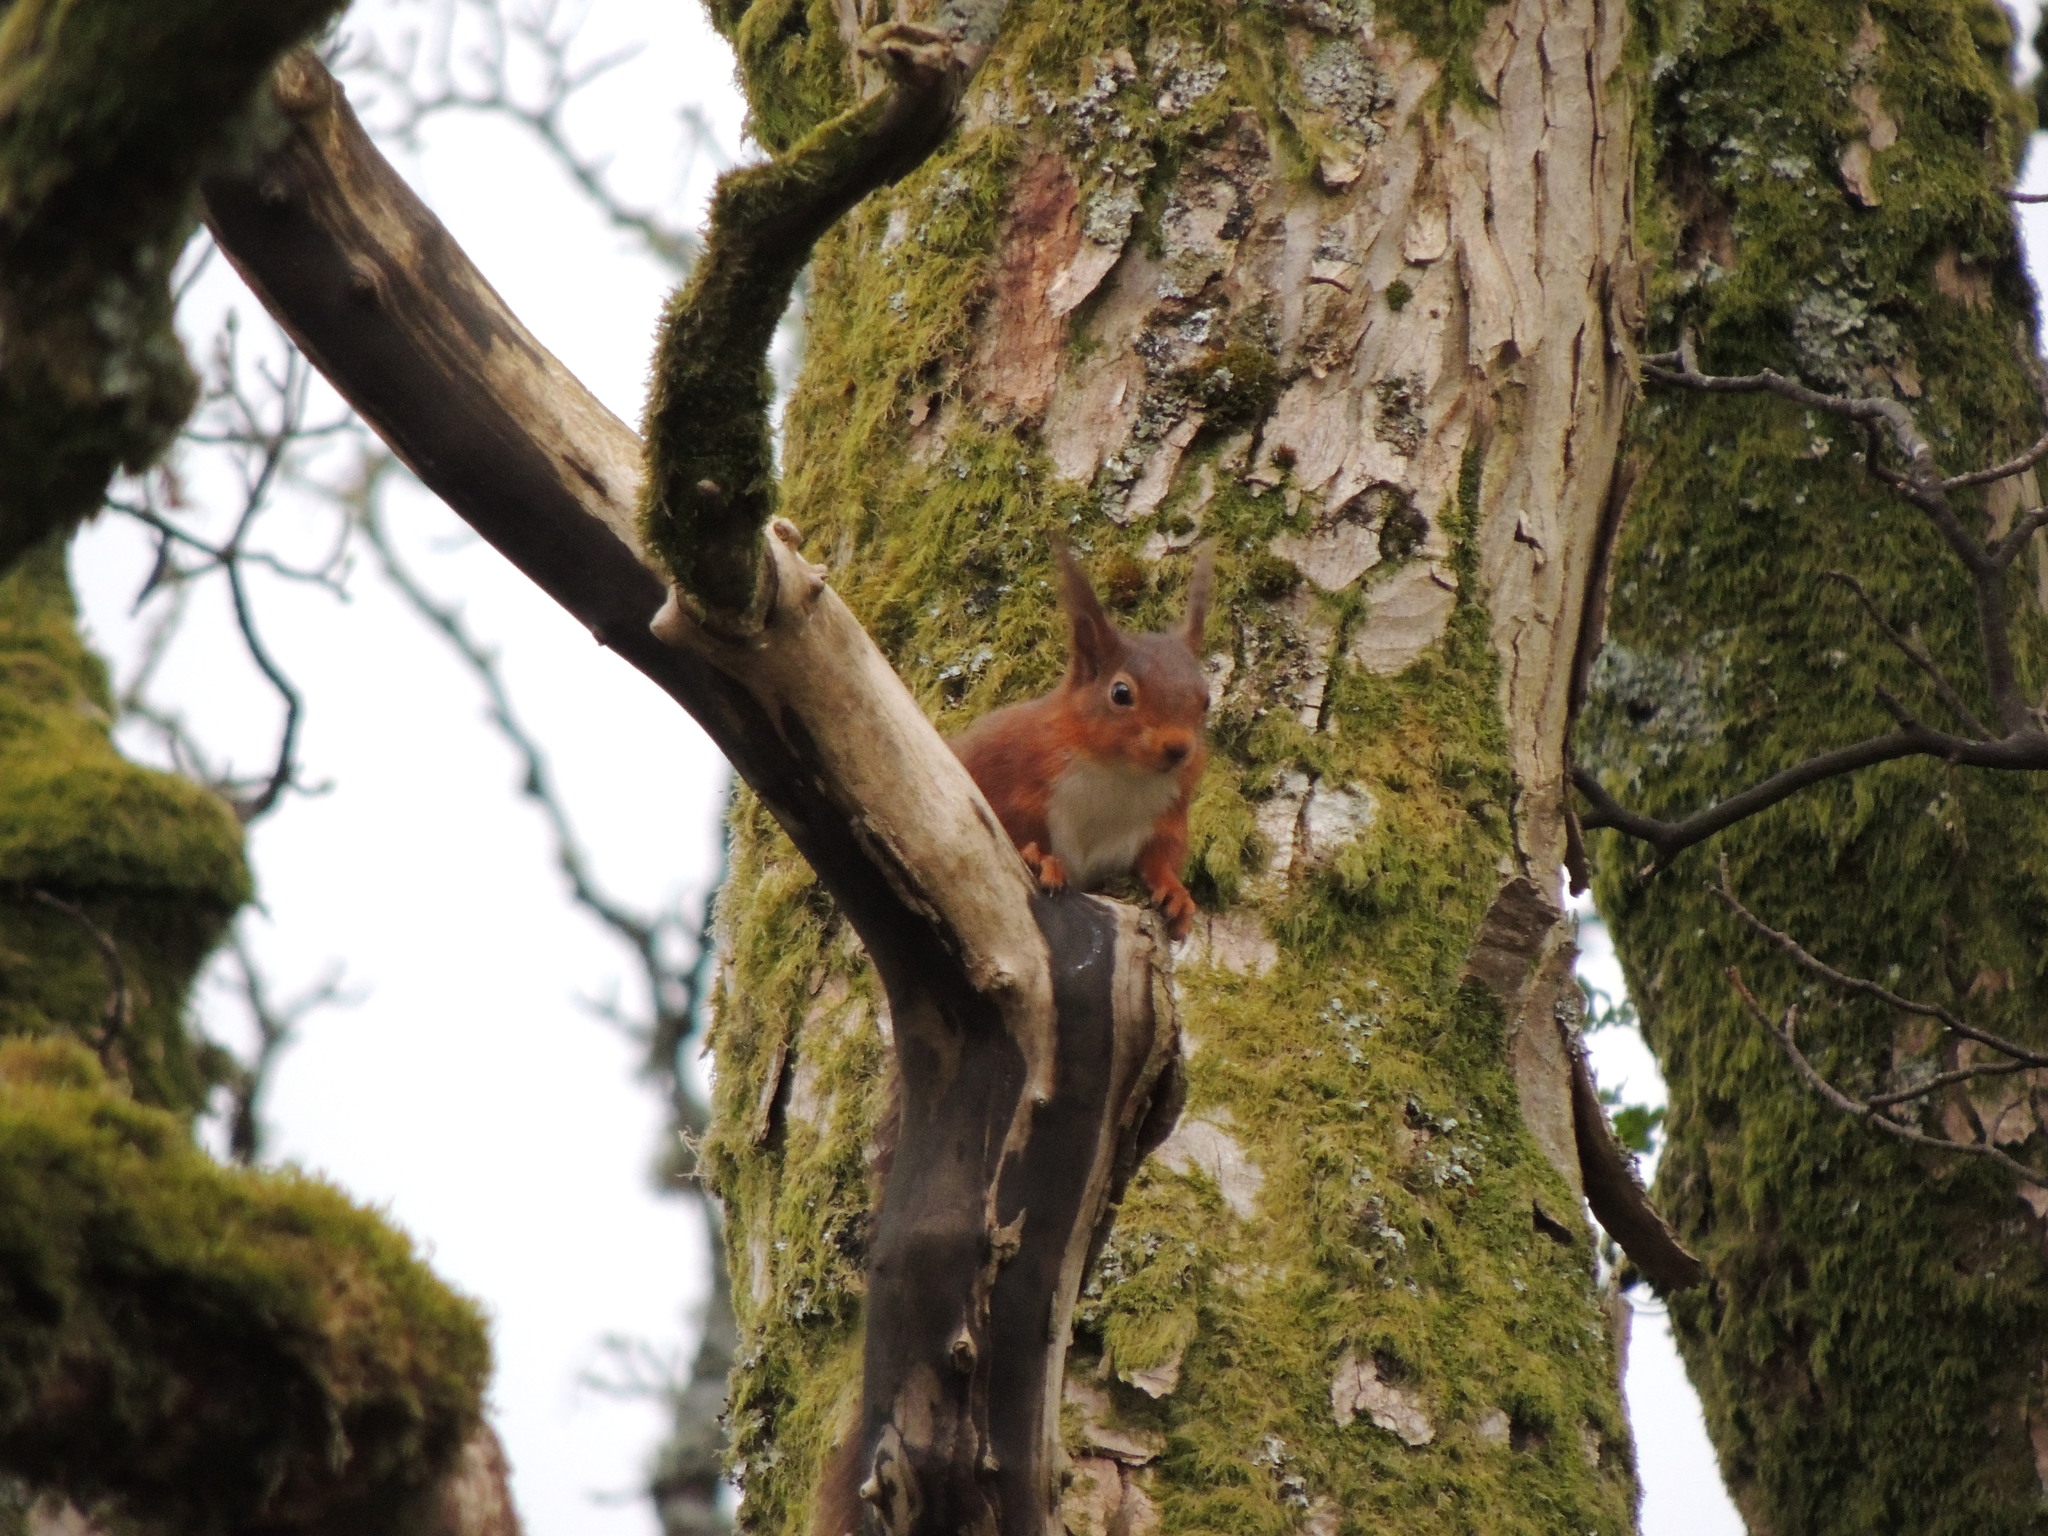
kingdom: Animalia
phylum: Chordata
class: Mammalia
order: Rodentia
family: Sciuridae
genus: Sciurus
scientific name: Sciurus vulgaris
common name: Eurasian red squirrel
